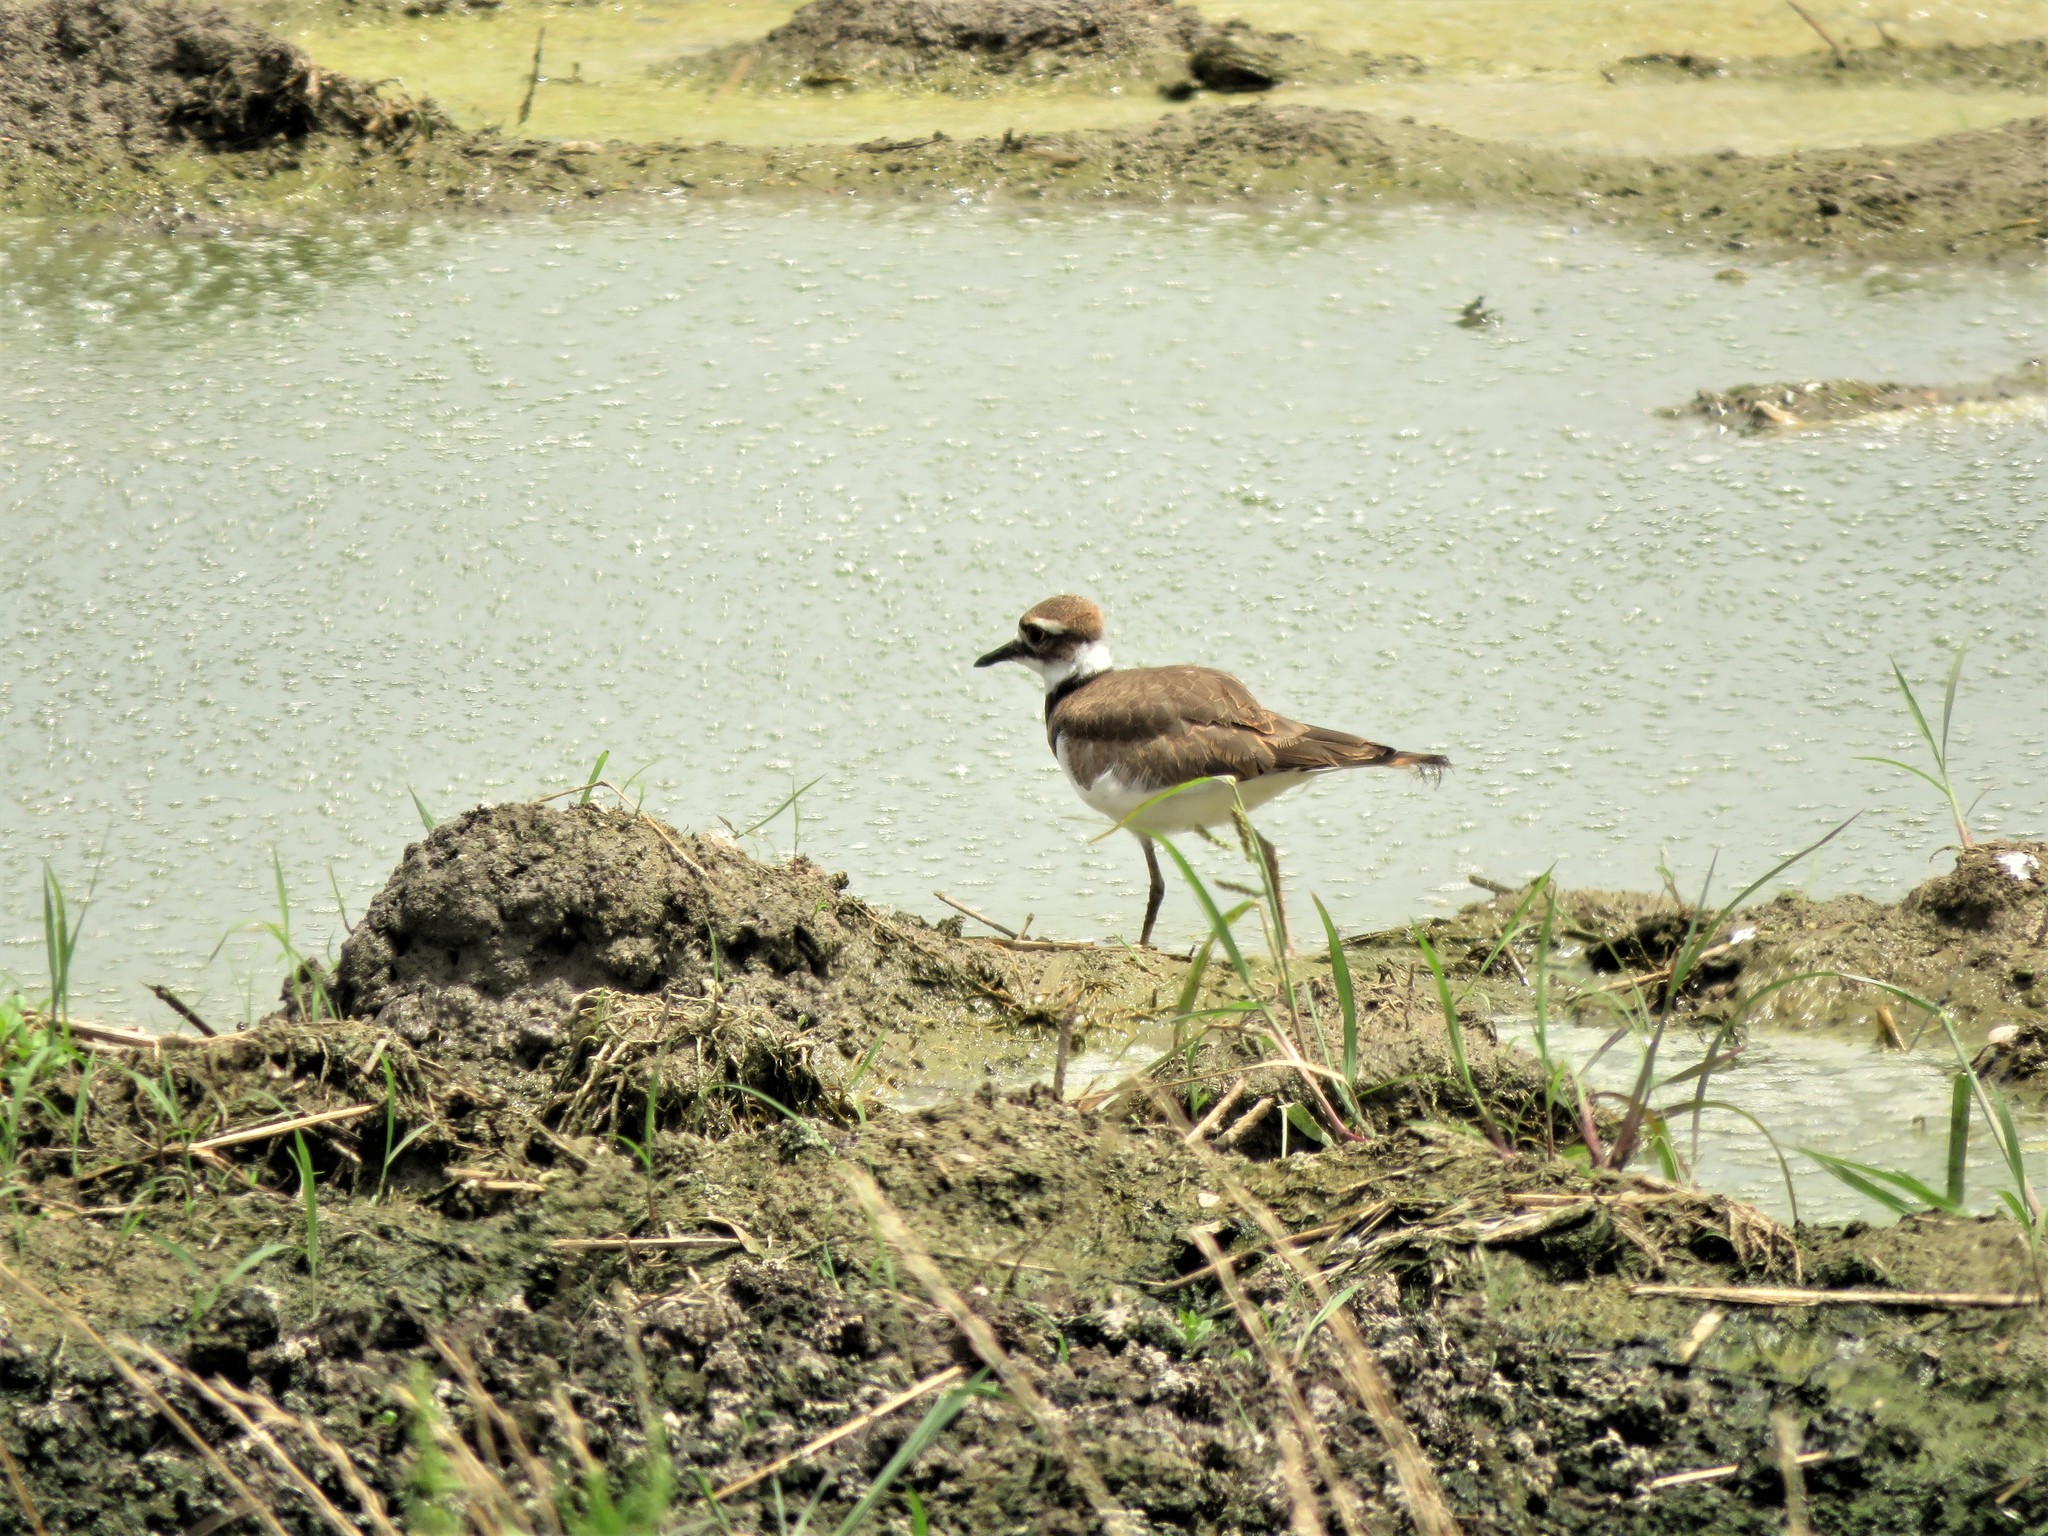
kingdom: Animalia
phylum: Chordata
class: Aves
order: Charadriiformes
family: Charadriidae
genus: Charadrius
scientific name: Charadrius vociferus
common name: Killdeer
